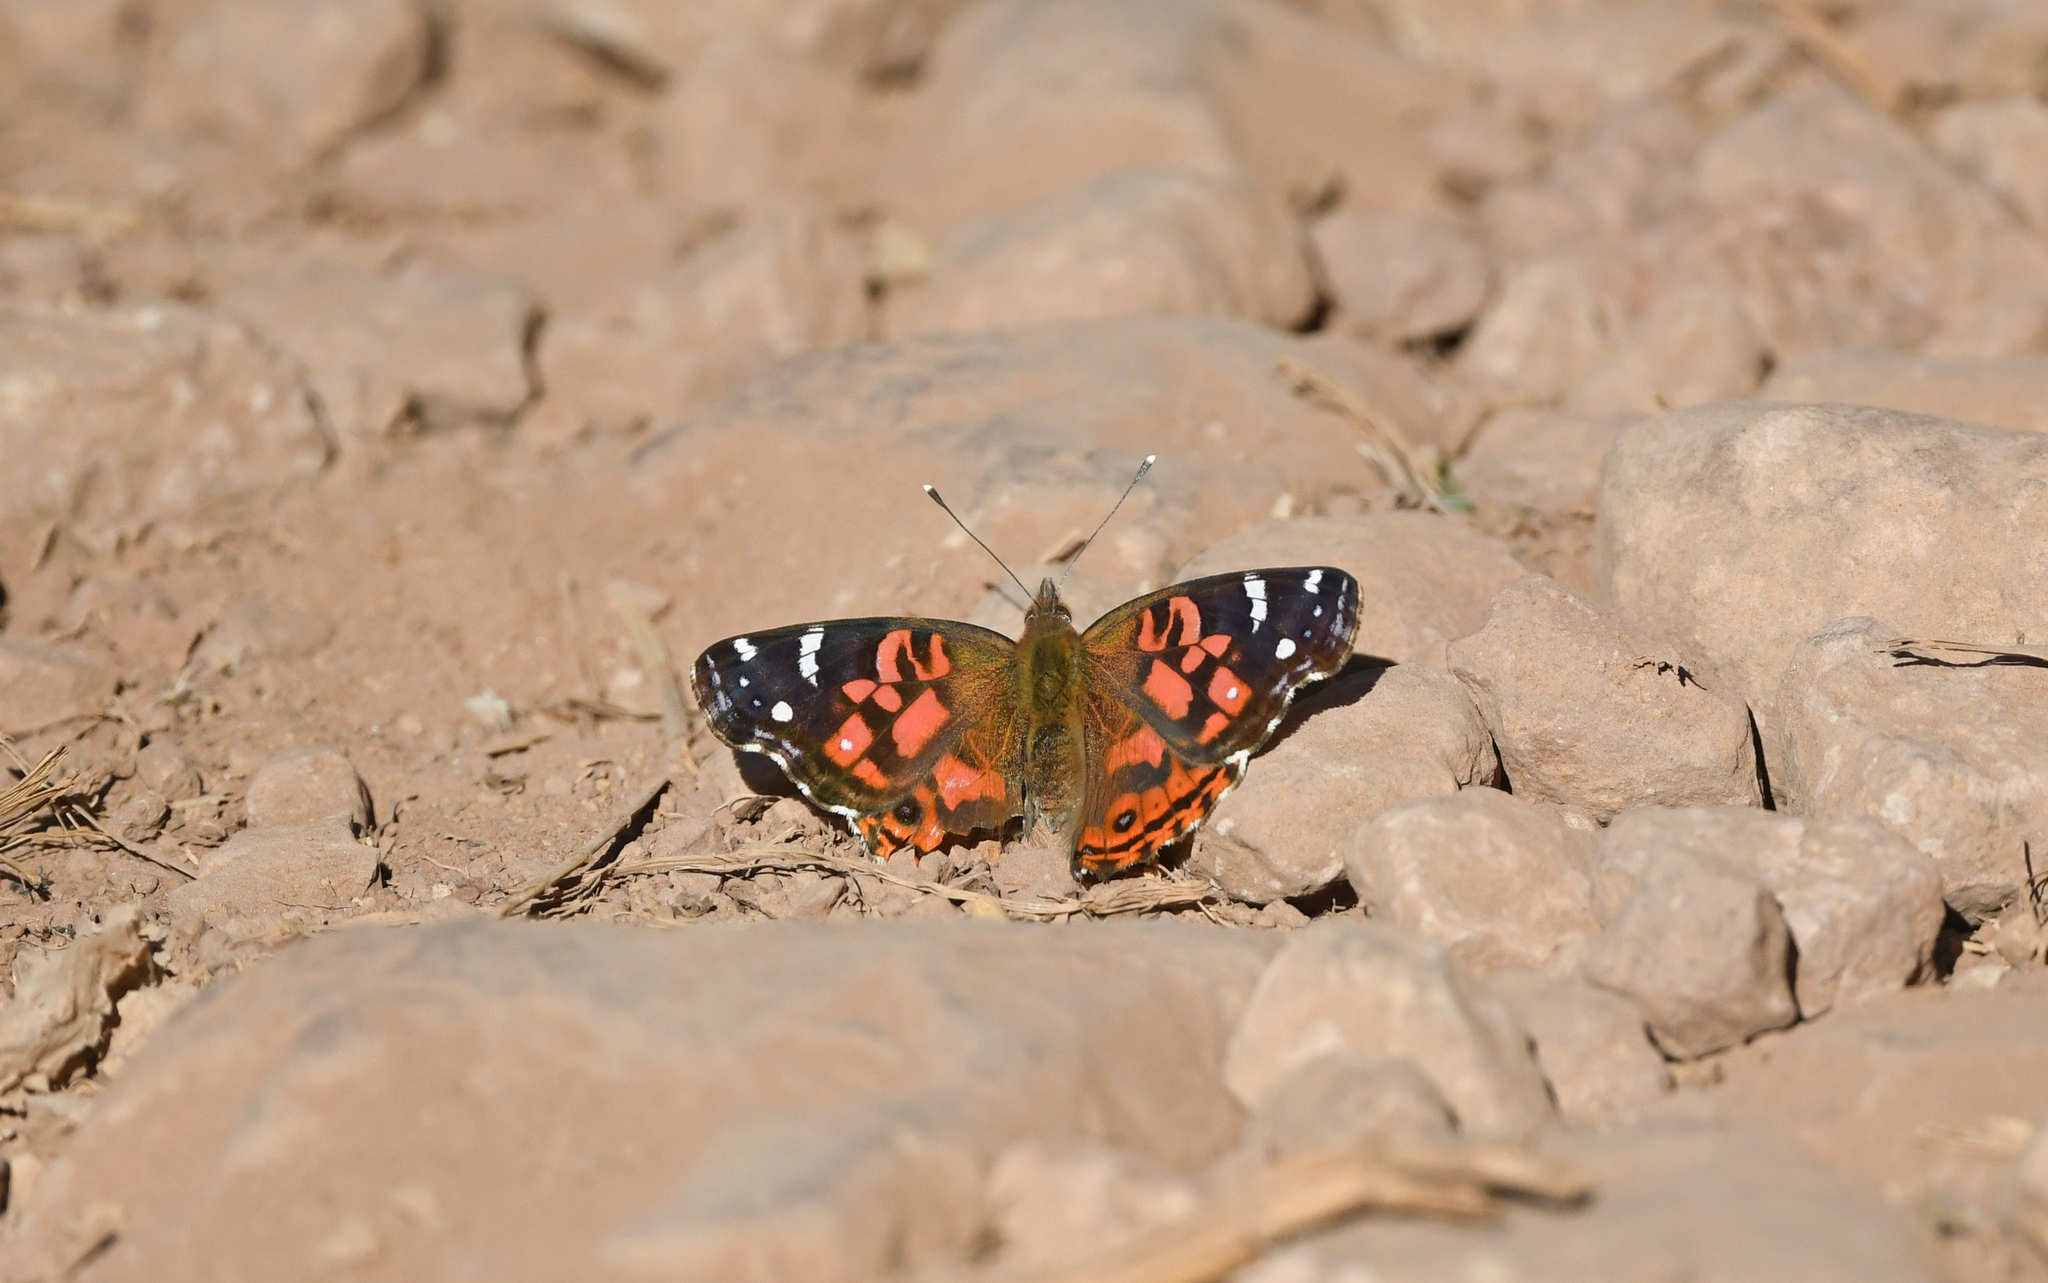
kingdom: Animalia
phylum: Arthropoda
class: Insecta
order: Lepidoptera
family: Nymphalidae
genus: Vanessa
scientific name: Vanessa braziliensis
